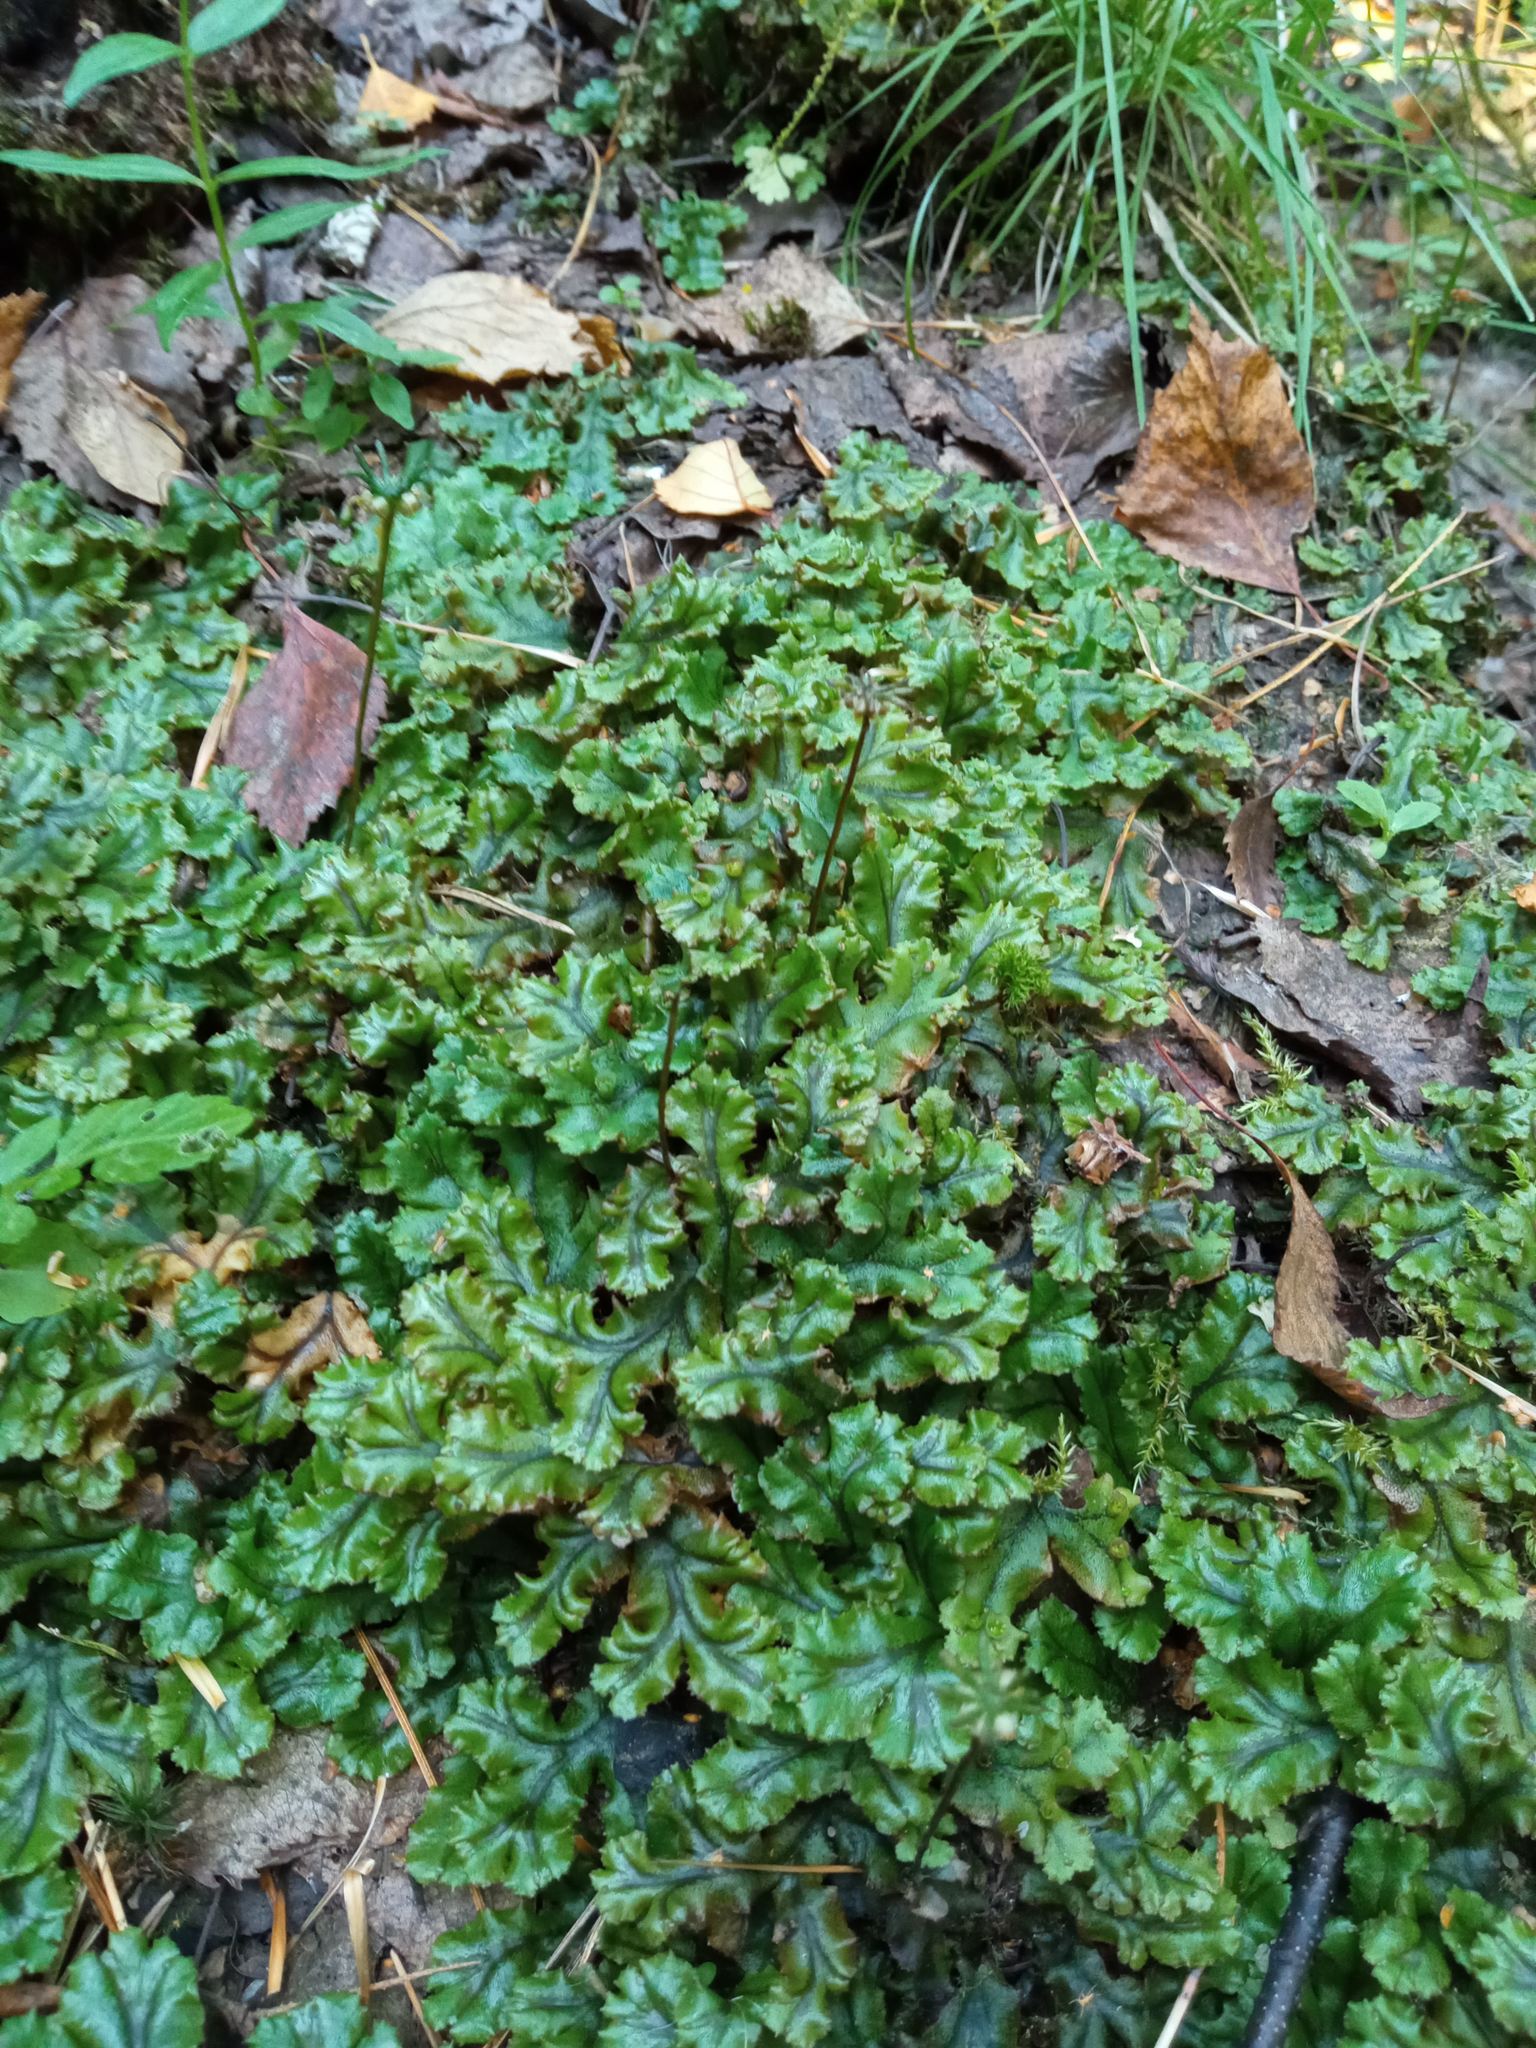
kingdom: Plantae
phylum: Marchantiophyta
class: Marchantiopsida
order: Marchantiales
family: Marchantiaceae
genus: Marchantia
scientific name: Marchantia polymorpha
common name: Common liverwort
